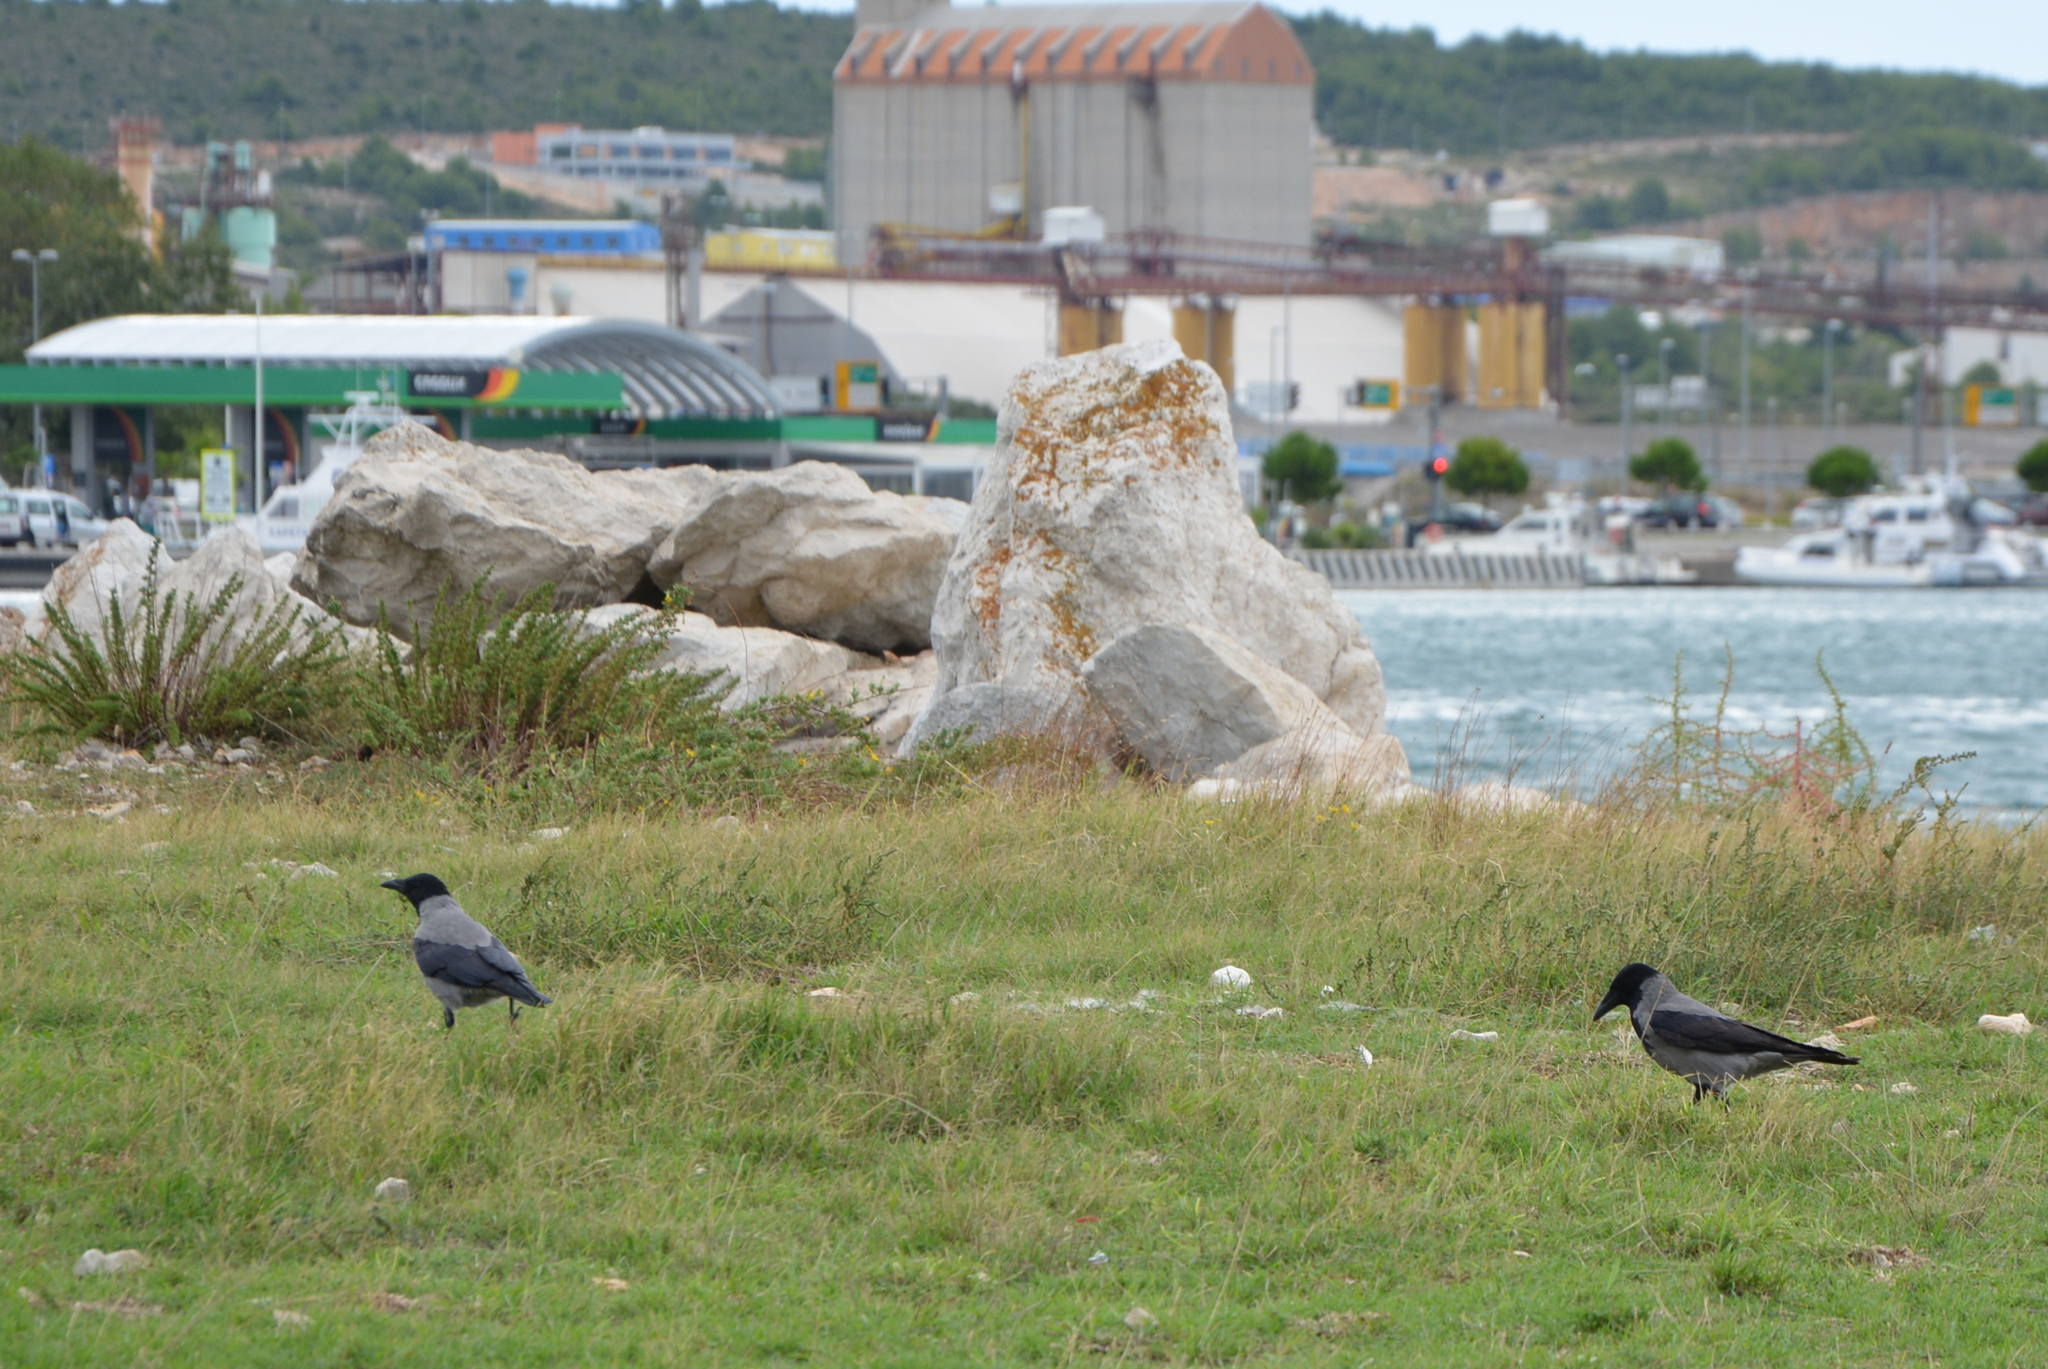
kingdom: Animalia
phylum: Chordata
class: Aves
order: Passeriformes
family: Corvidae
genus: Corvus
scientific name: Corvus cornix
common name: Hooded crow
